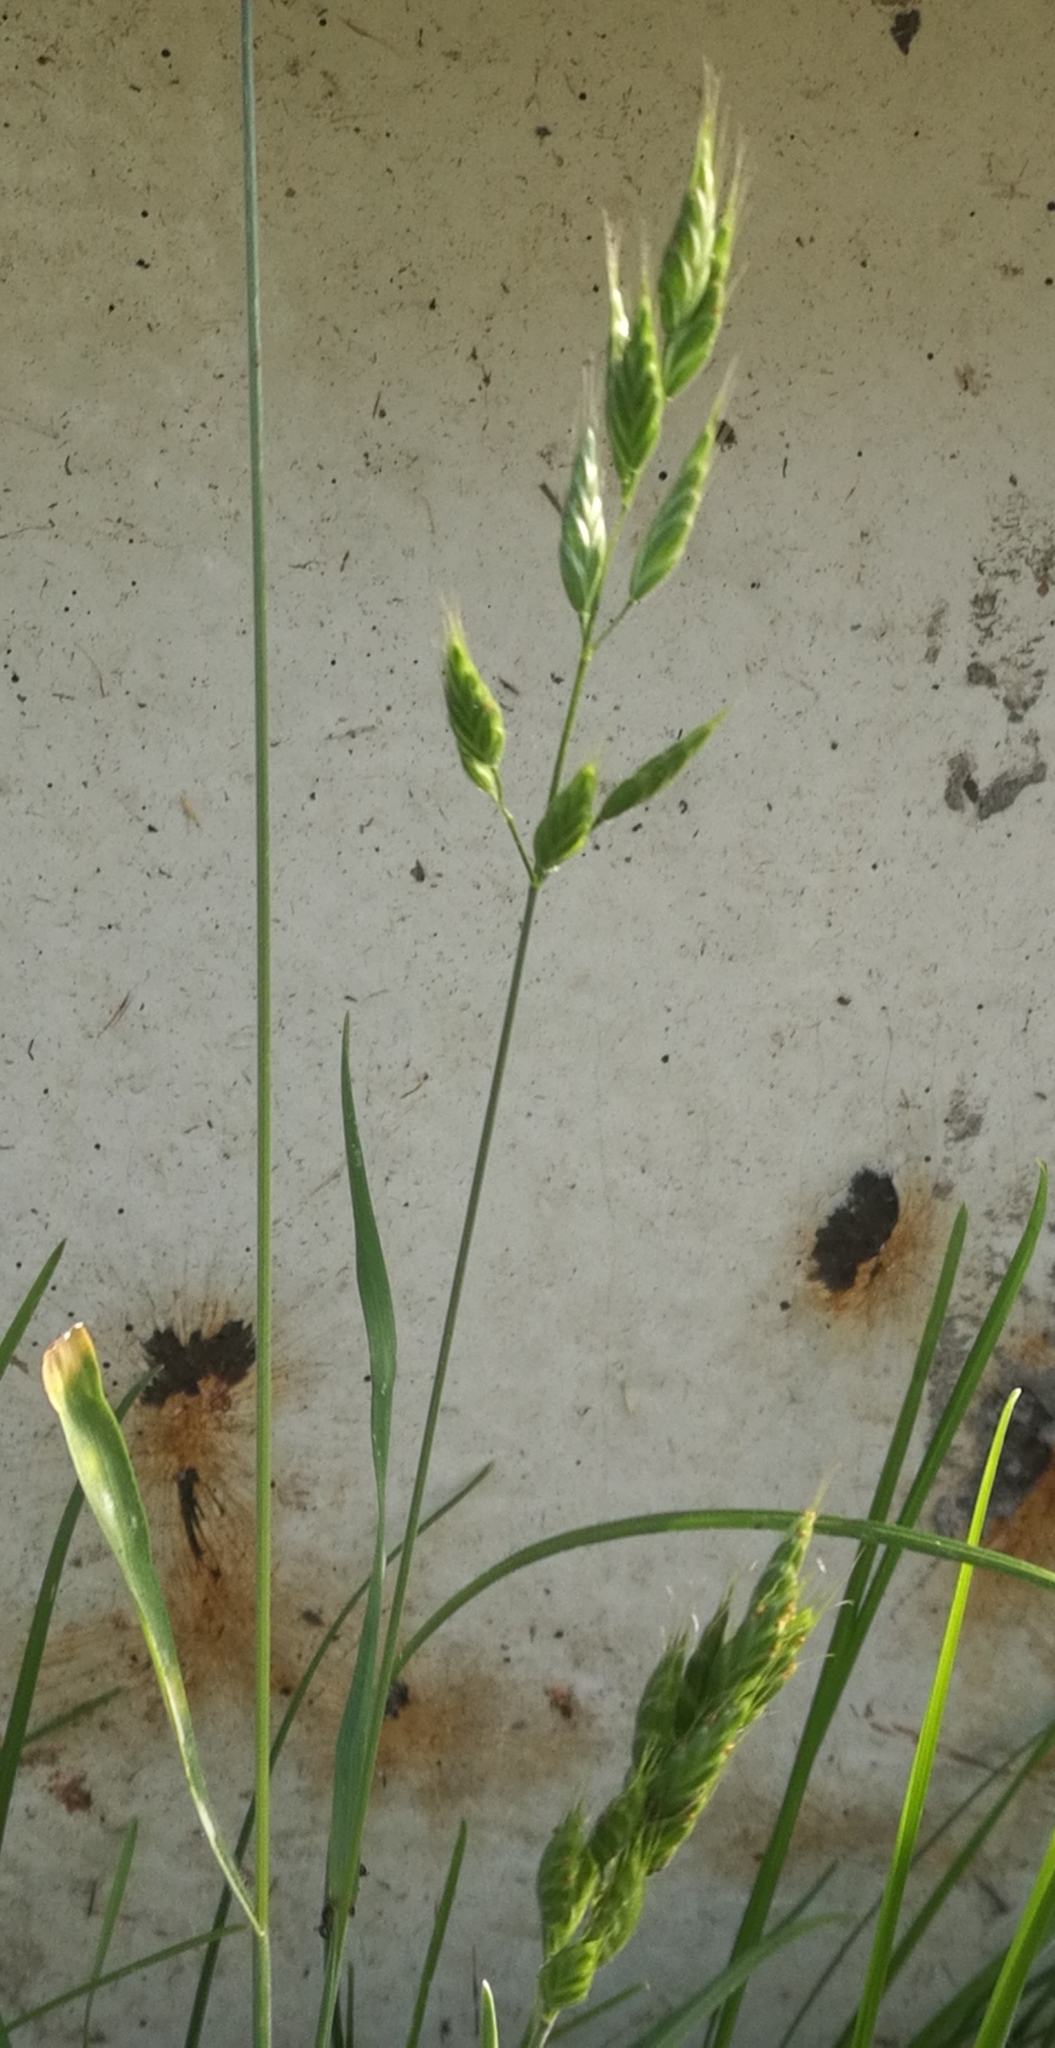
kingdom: Plantae
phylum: Tracheophyta
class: Liliopsida
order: Poales
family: Poaceae
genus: Bromus
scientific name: Bromus hordeaceus
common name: Soft brome
